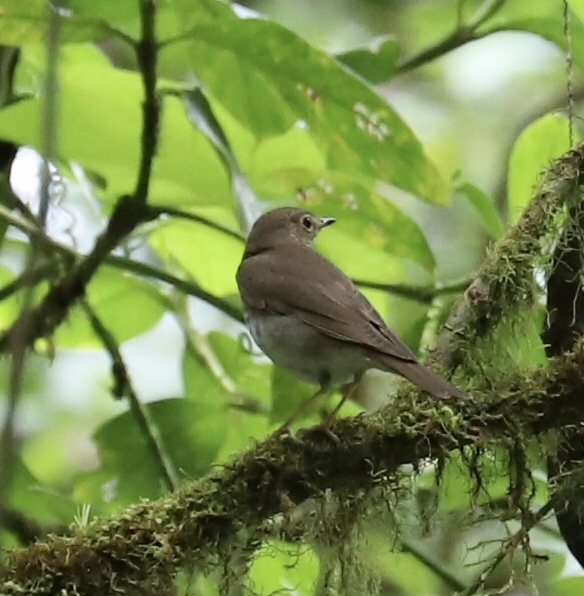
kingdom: Animalia
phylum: Chordata
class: Aves
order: Passeriformes
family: Turdidae
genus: Catharus
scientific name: Catharus ustulatus
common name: Swainson's thrush
